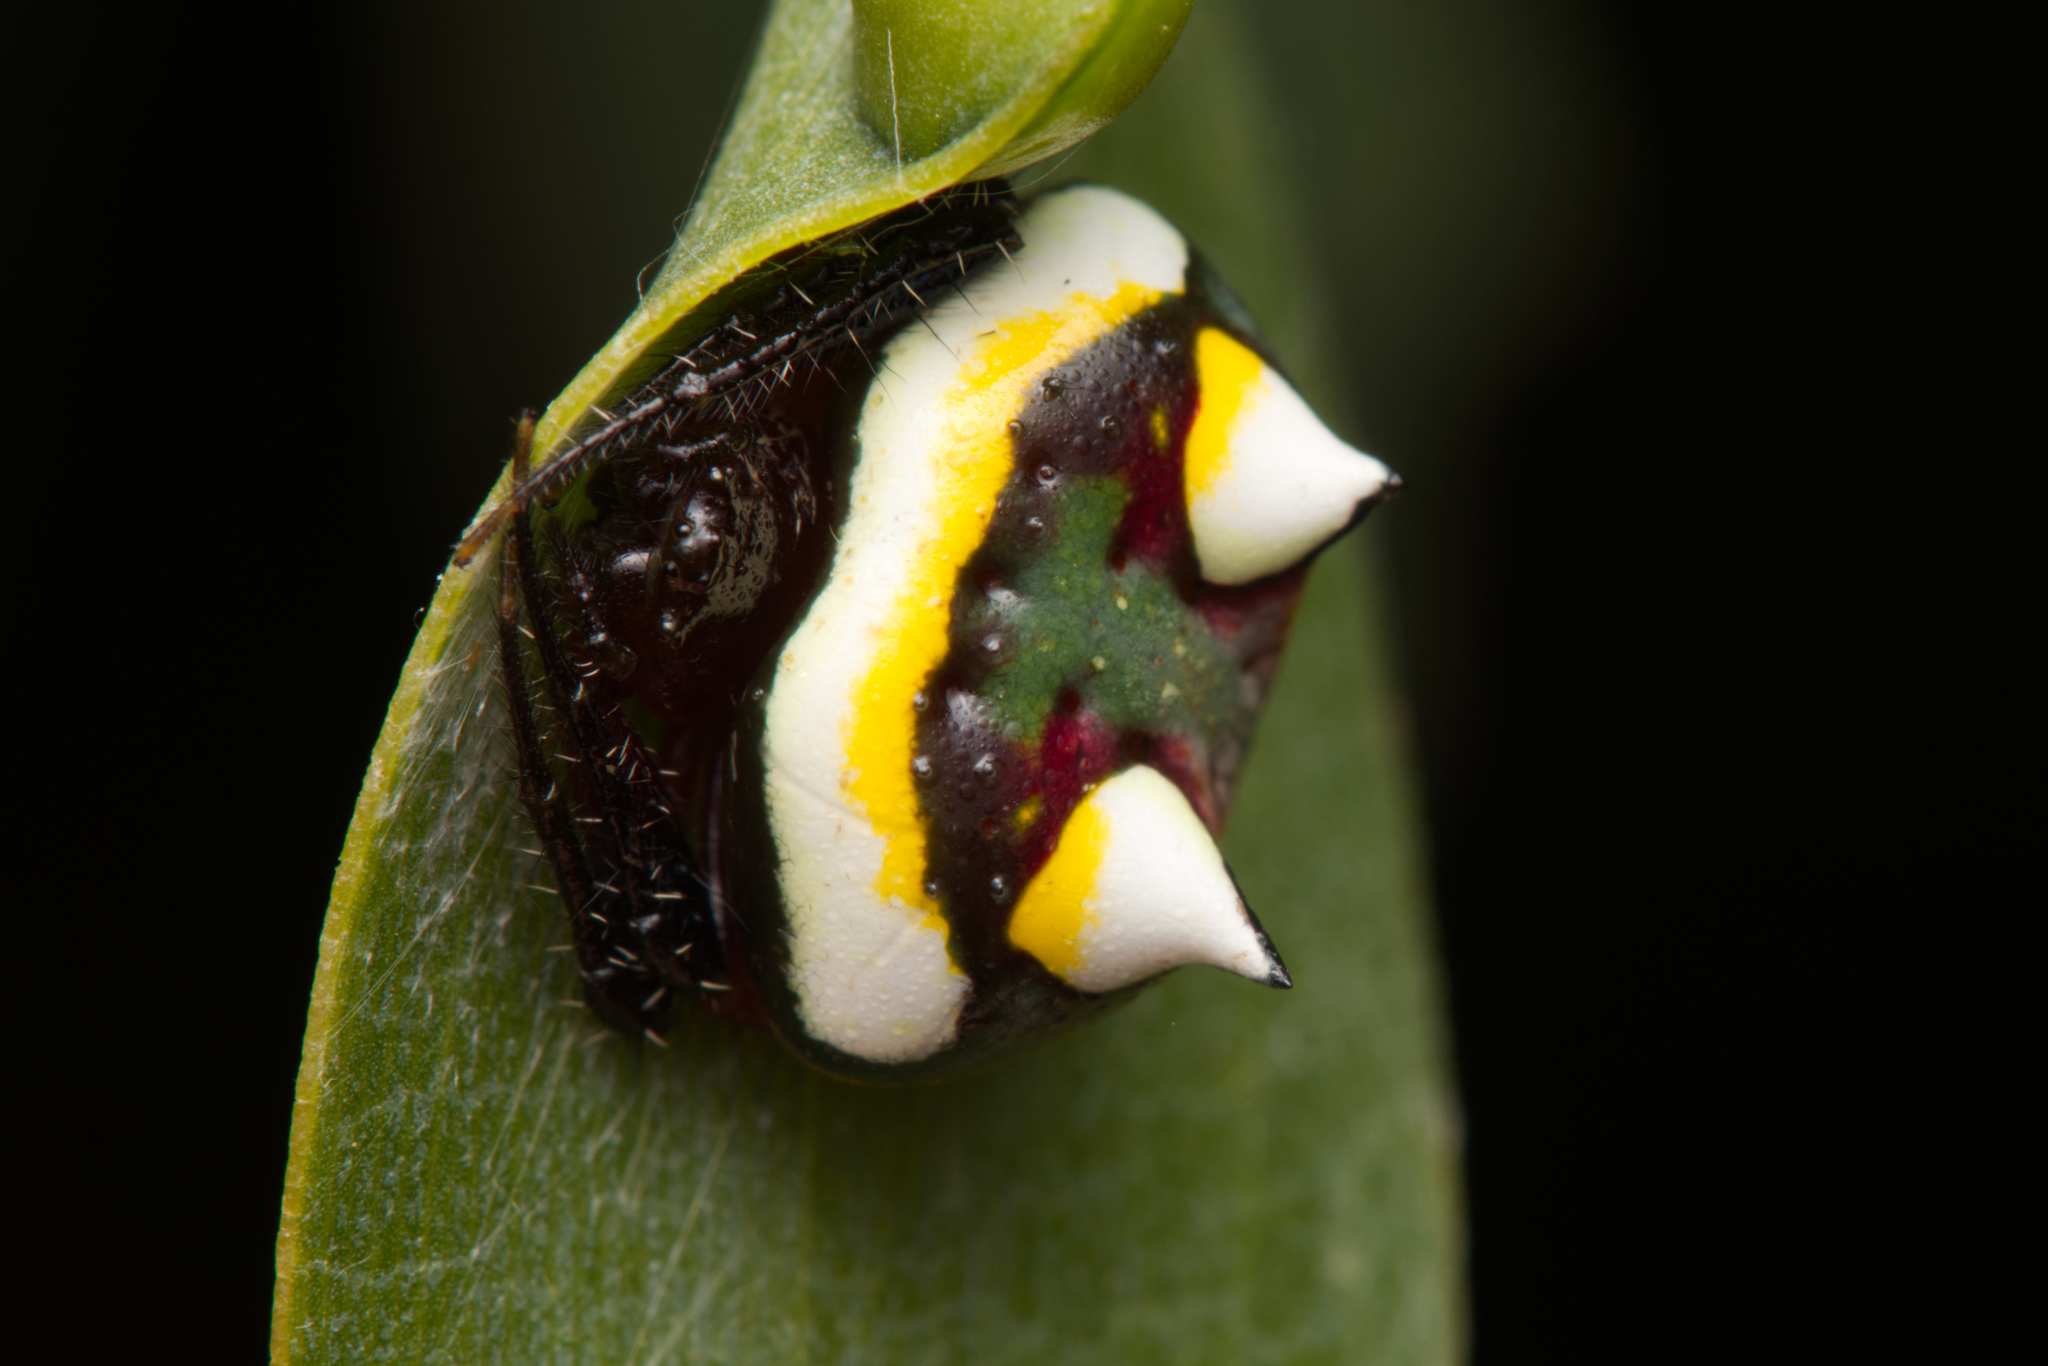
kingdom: Animalia
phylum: Arthropoda
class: Arachnida
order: Araneae
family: Araneidae
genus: Poecilopachys
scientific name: Poecilopachys australasia
